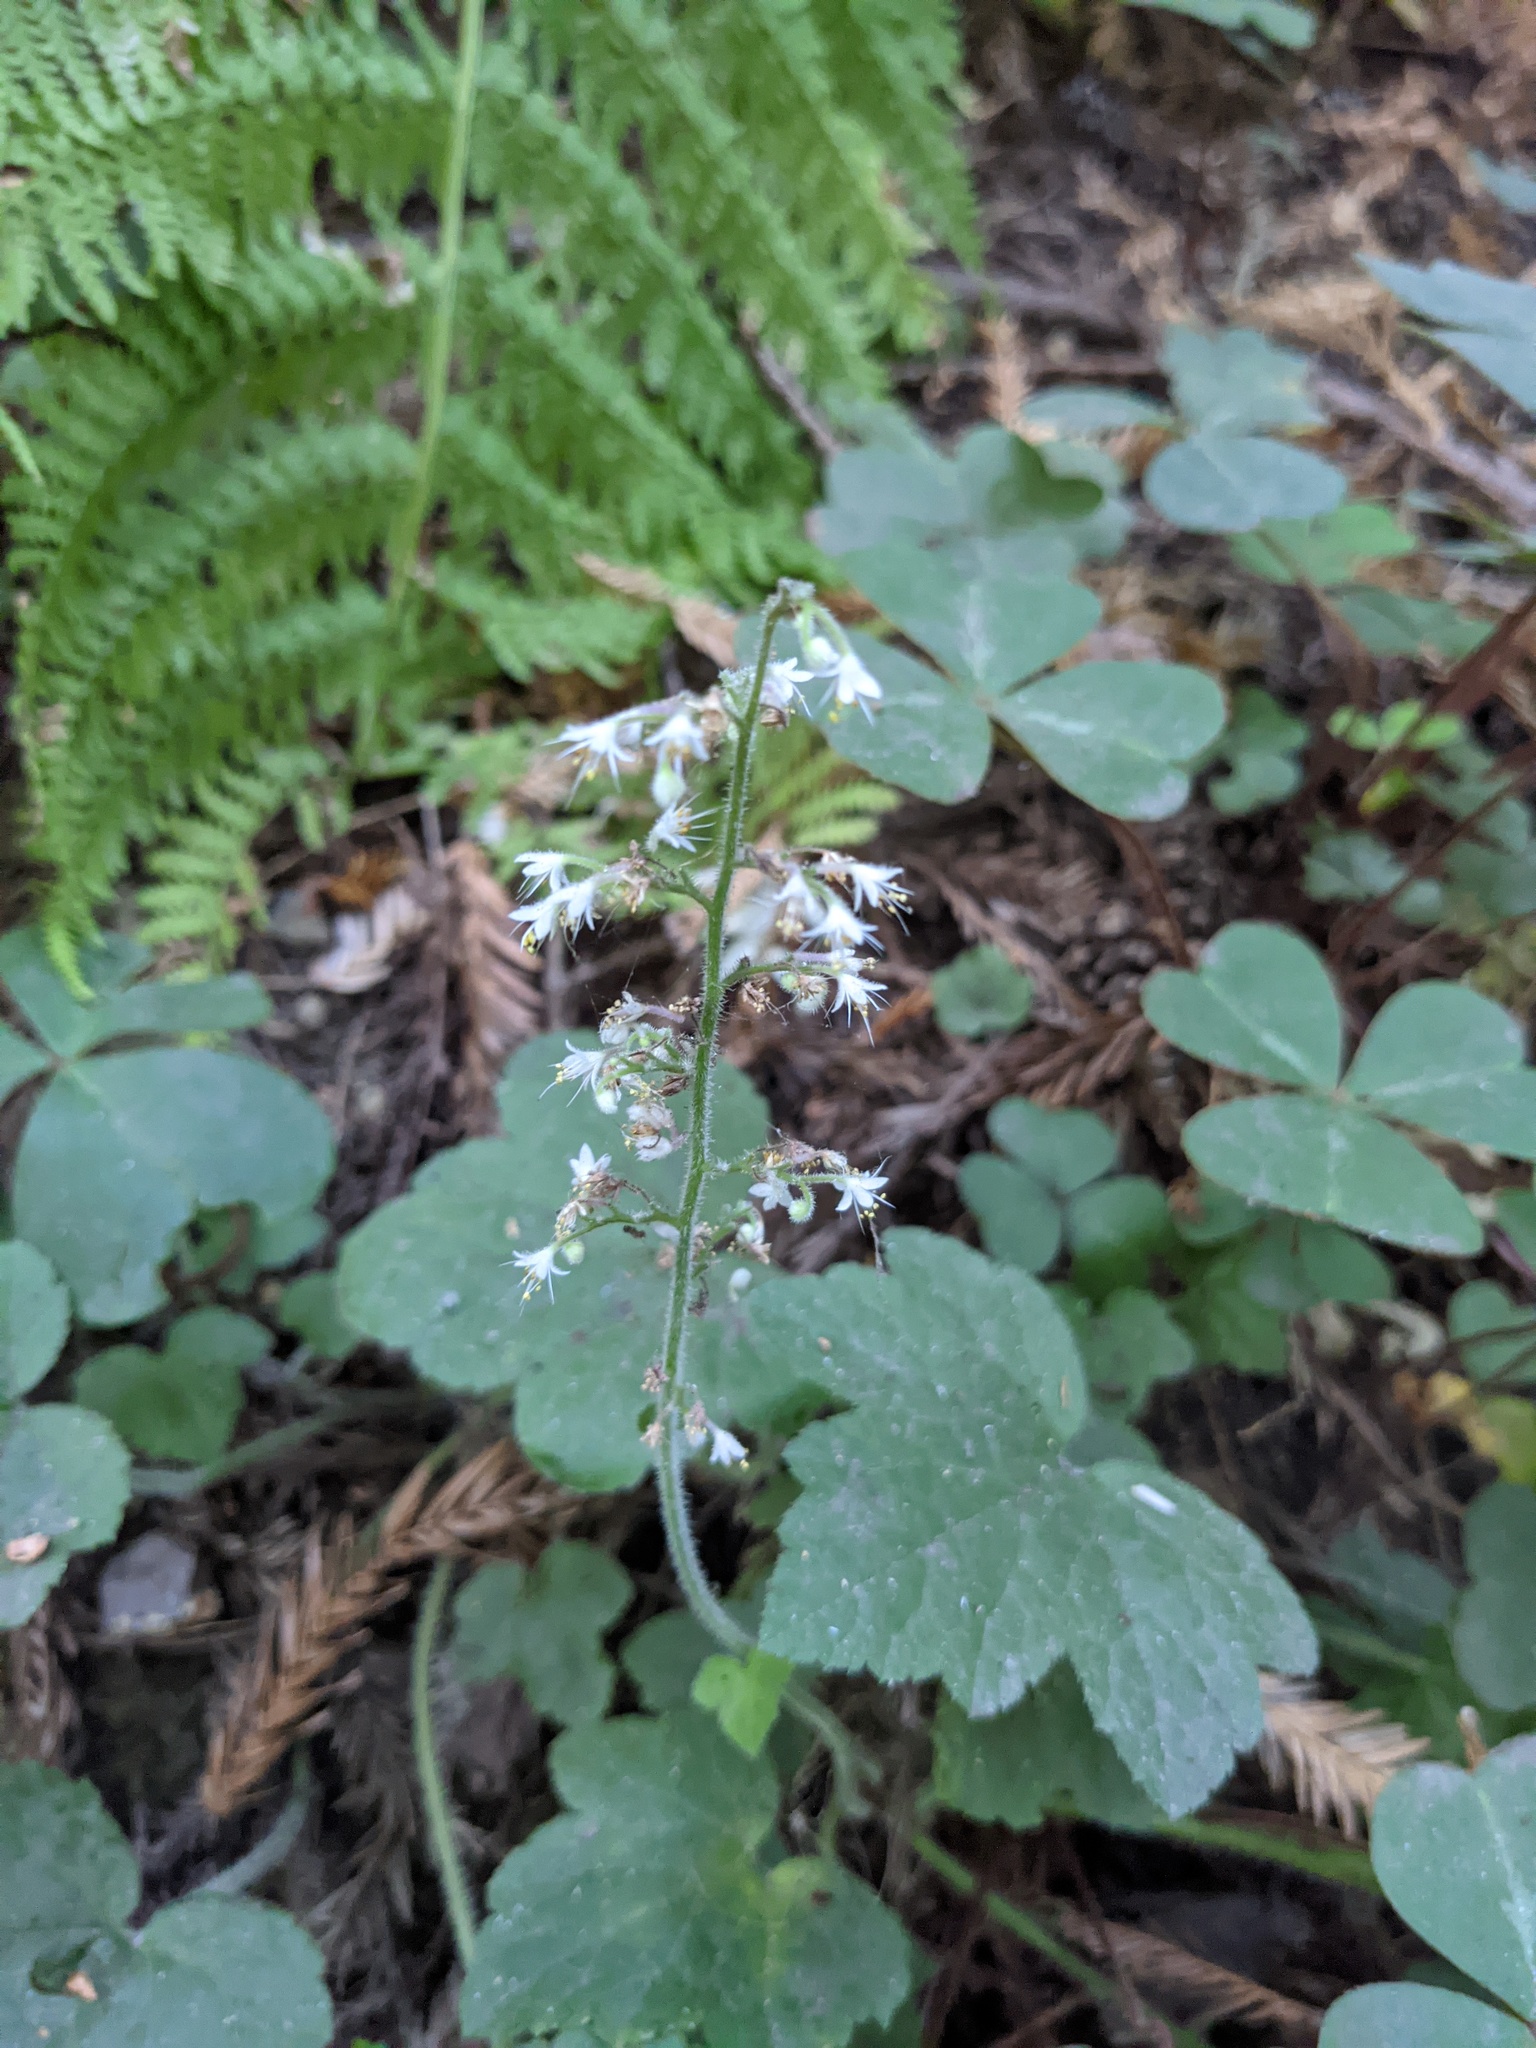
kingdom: Plantae
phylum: Tracheophyta
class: Magnoliopsida
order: Saxifragales
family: Saxifragaceae
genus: Tiarella
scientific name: Tiarella trifoliata
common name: Sugar-scoop
